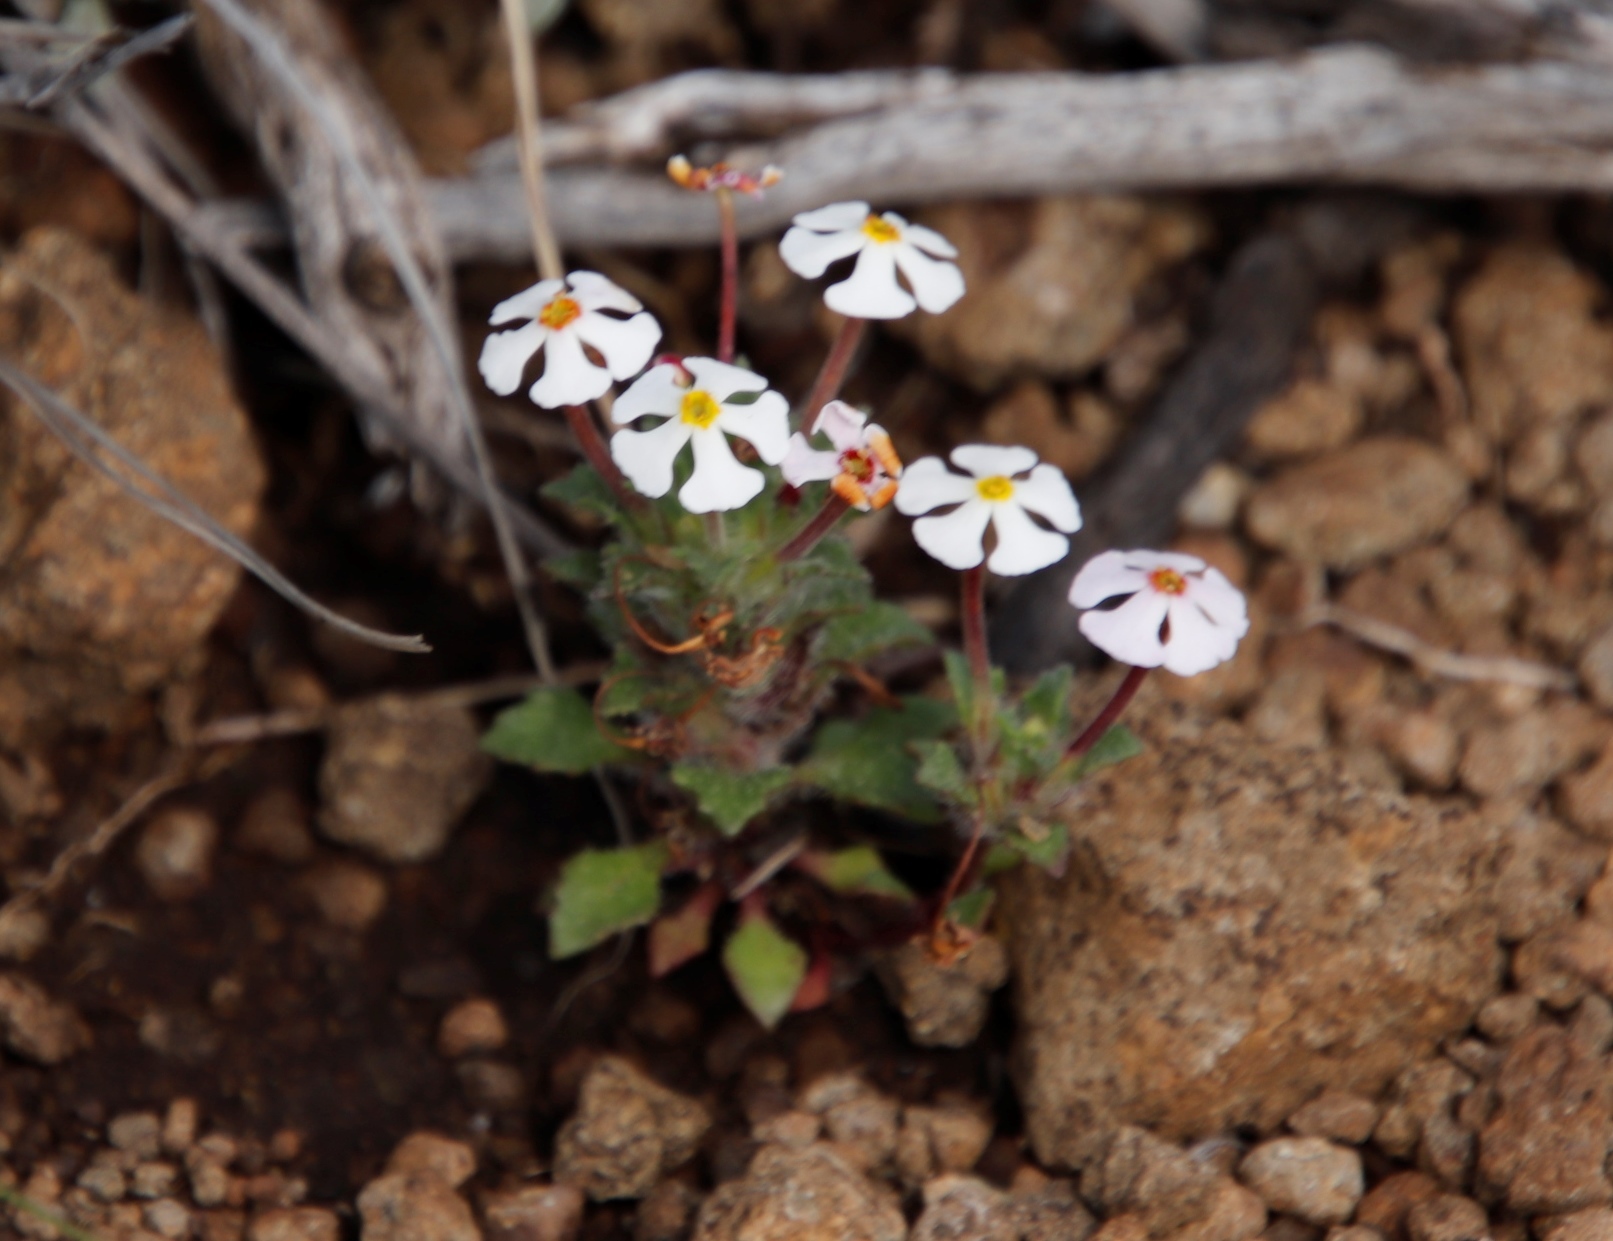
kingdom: Plantae
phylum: Tracheophyta
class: Magnoliopsida
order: Lamiales
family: Scrophulariaceae
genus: Zaluzianskya
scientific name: Zaluzianskya crocea
